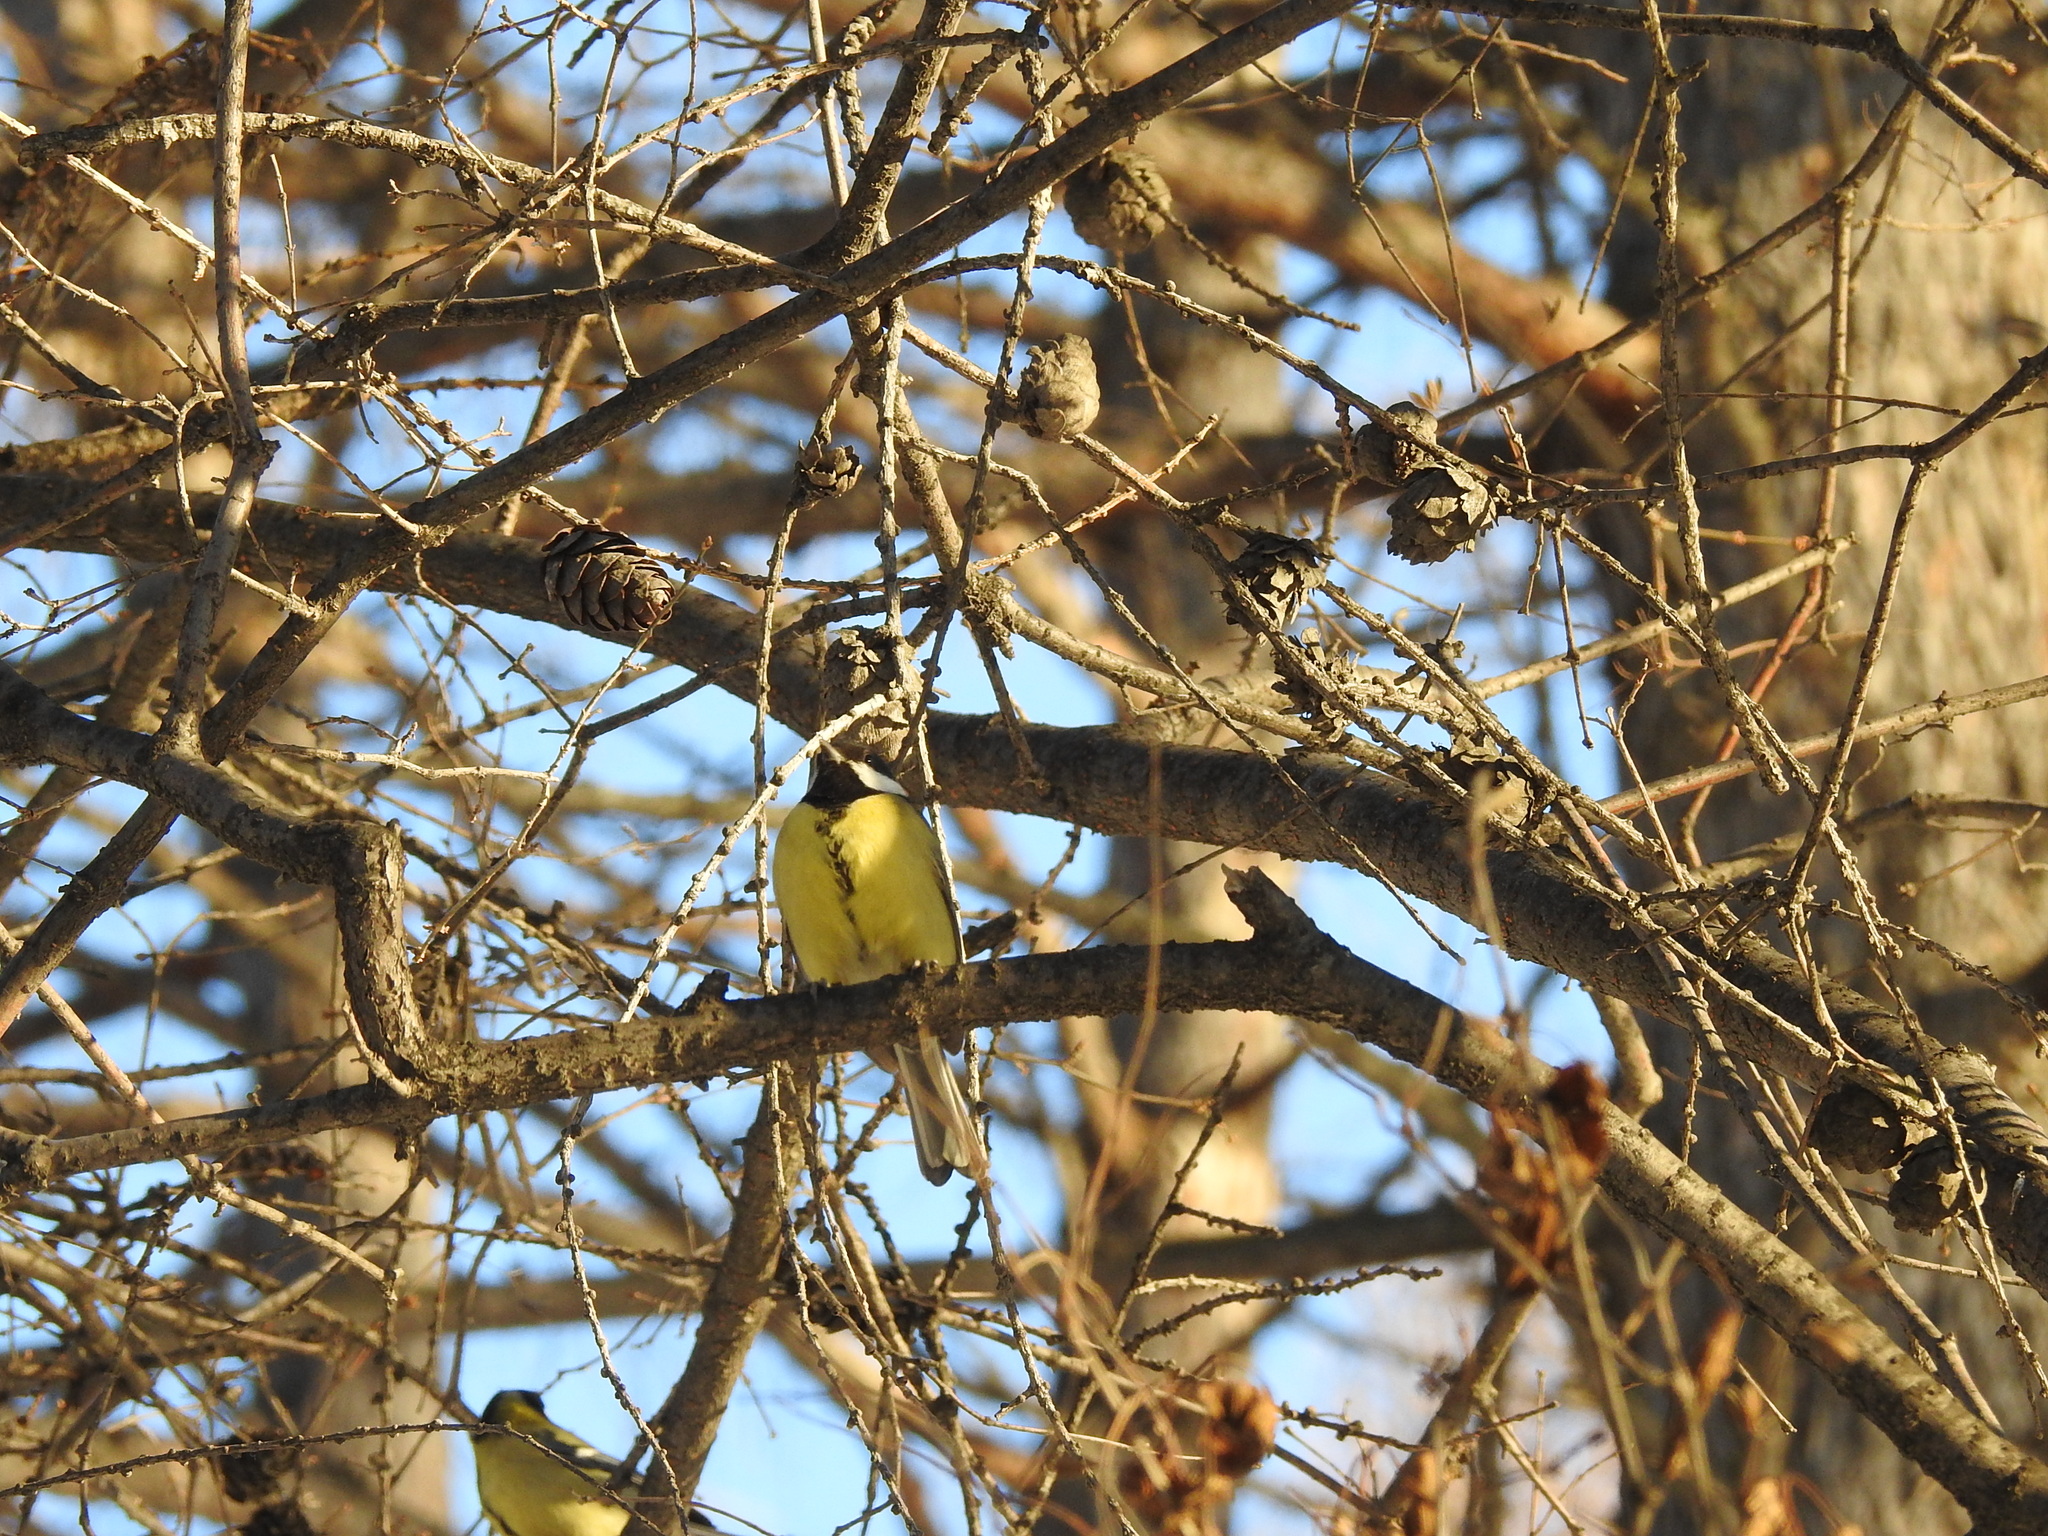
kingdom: Animalia
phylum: Chordata
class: Aves
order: Passeriformes
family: Paridae
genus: Parus
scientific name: Parus major
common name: Great tit
